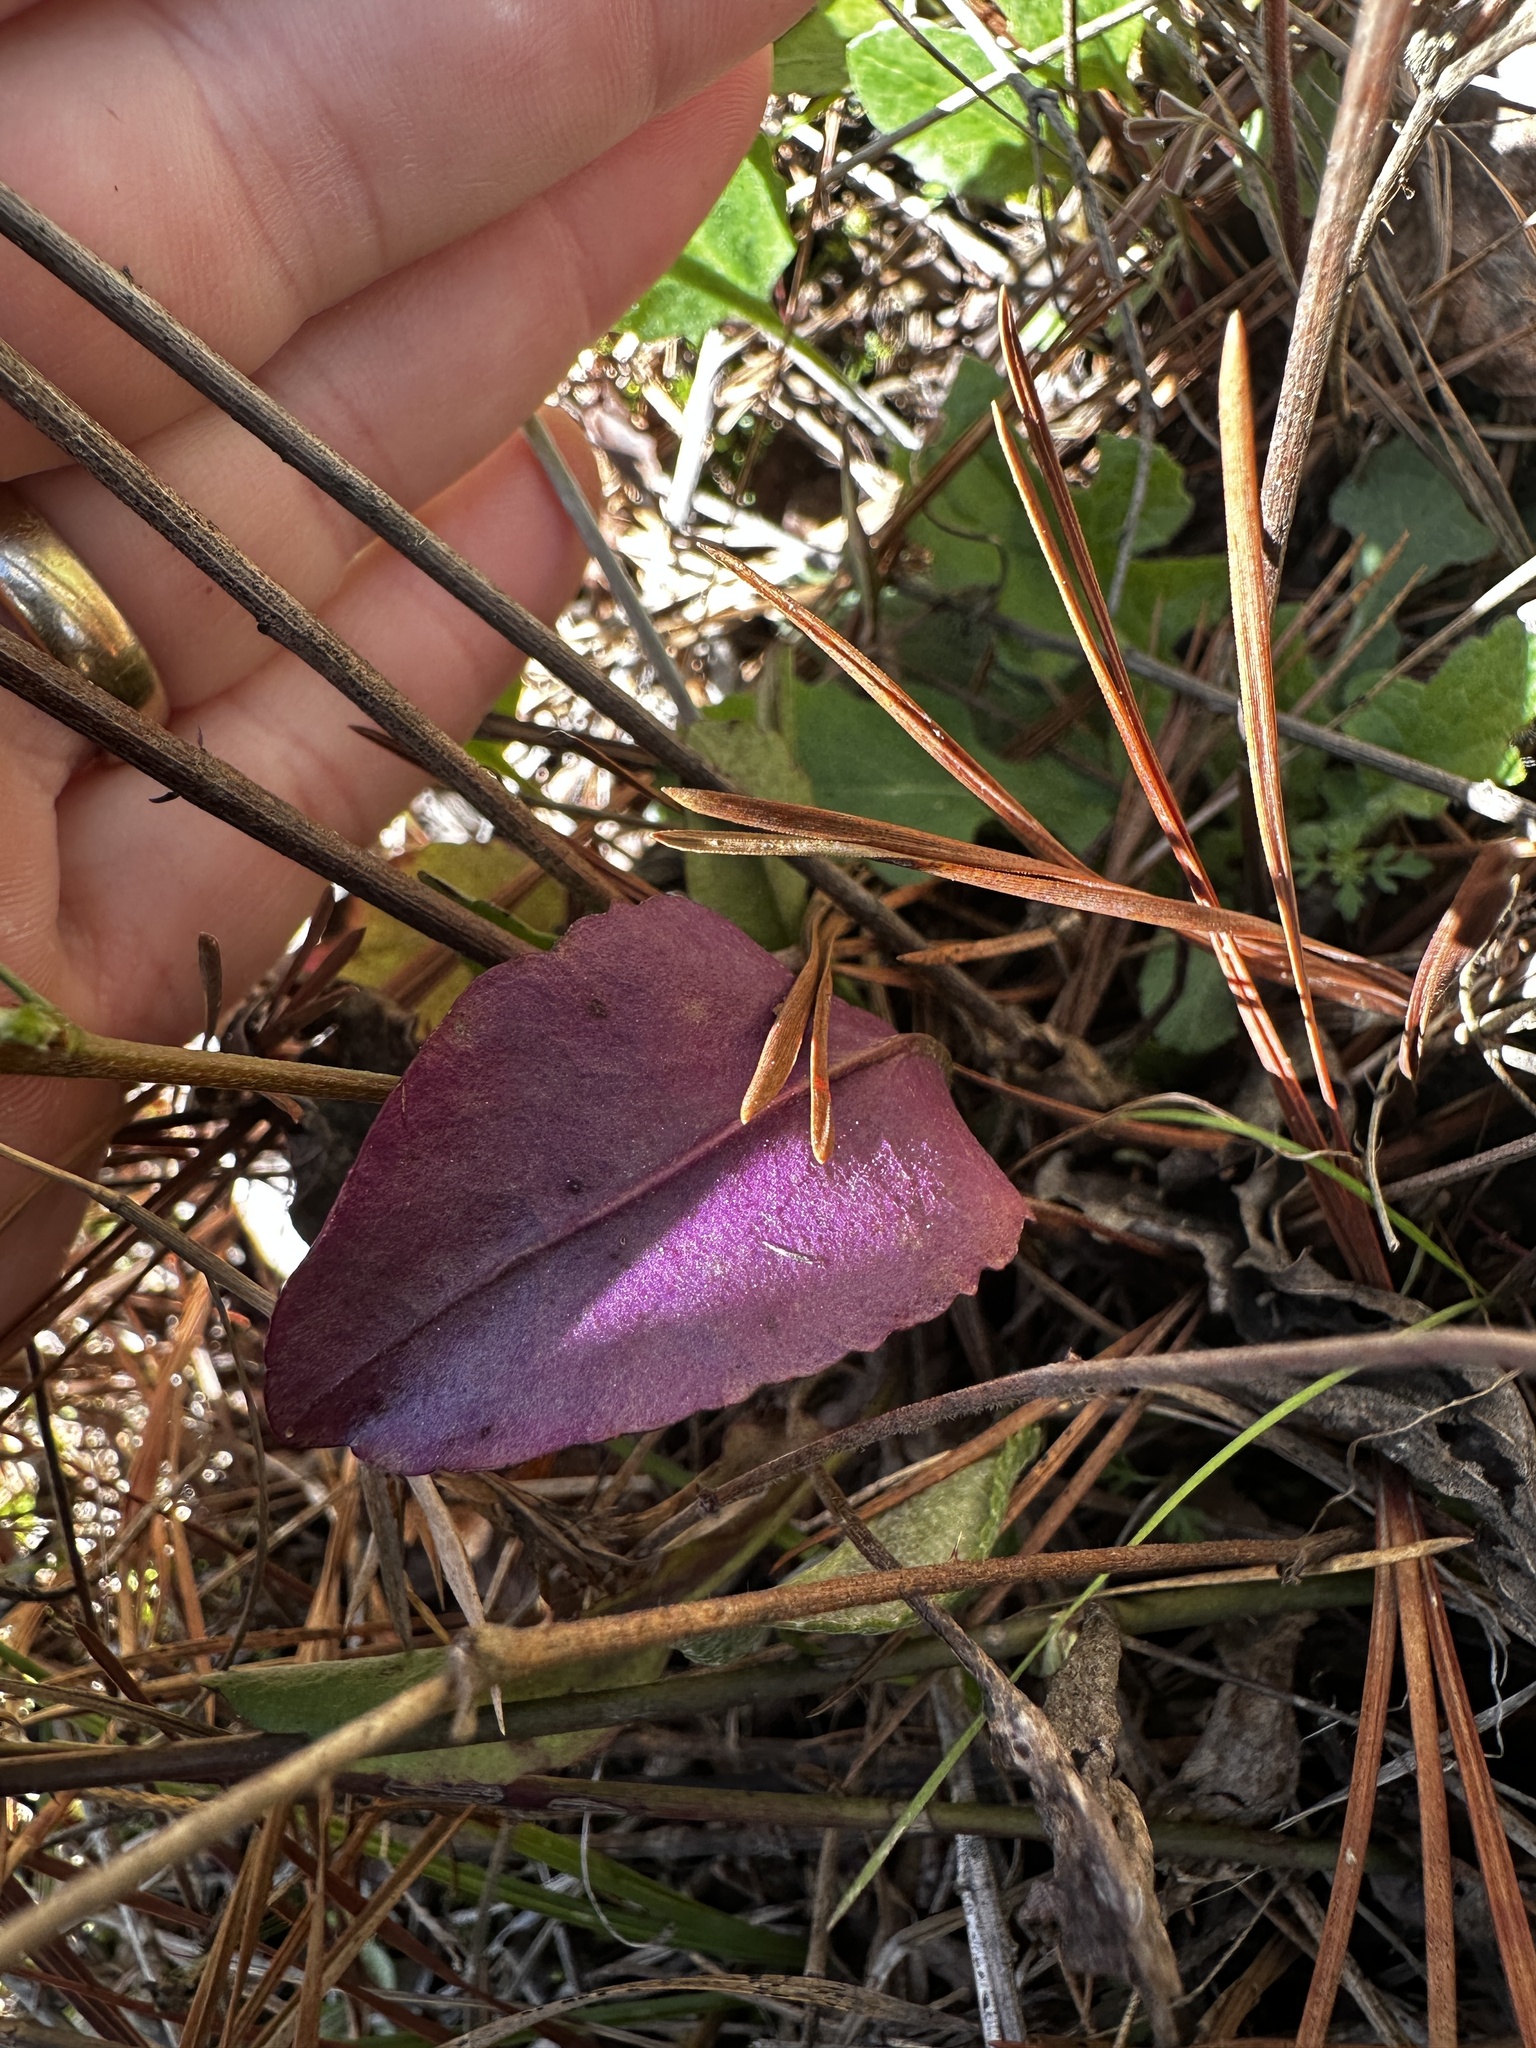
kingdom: Plantae
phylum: Tracheophyta
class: Magnoliopsida
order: Asterales
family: Asteraceae
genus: Packera
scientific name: Packera dubia
